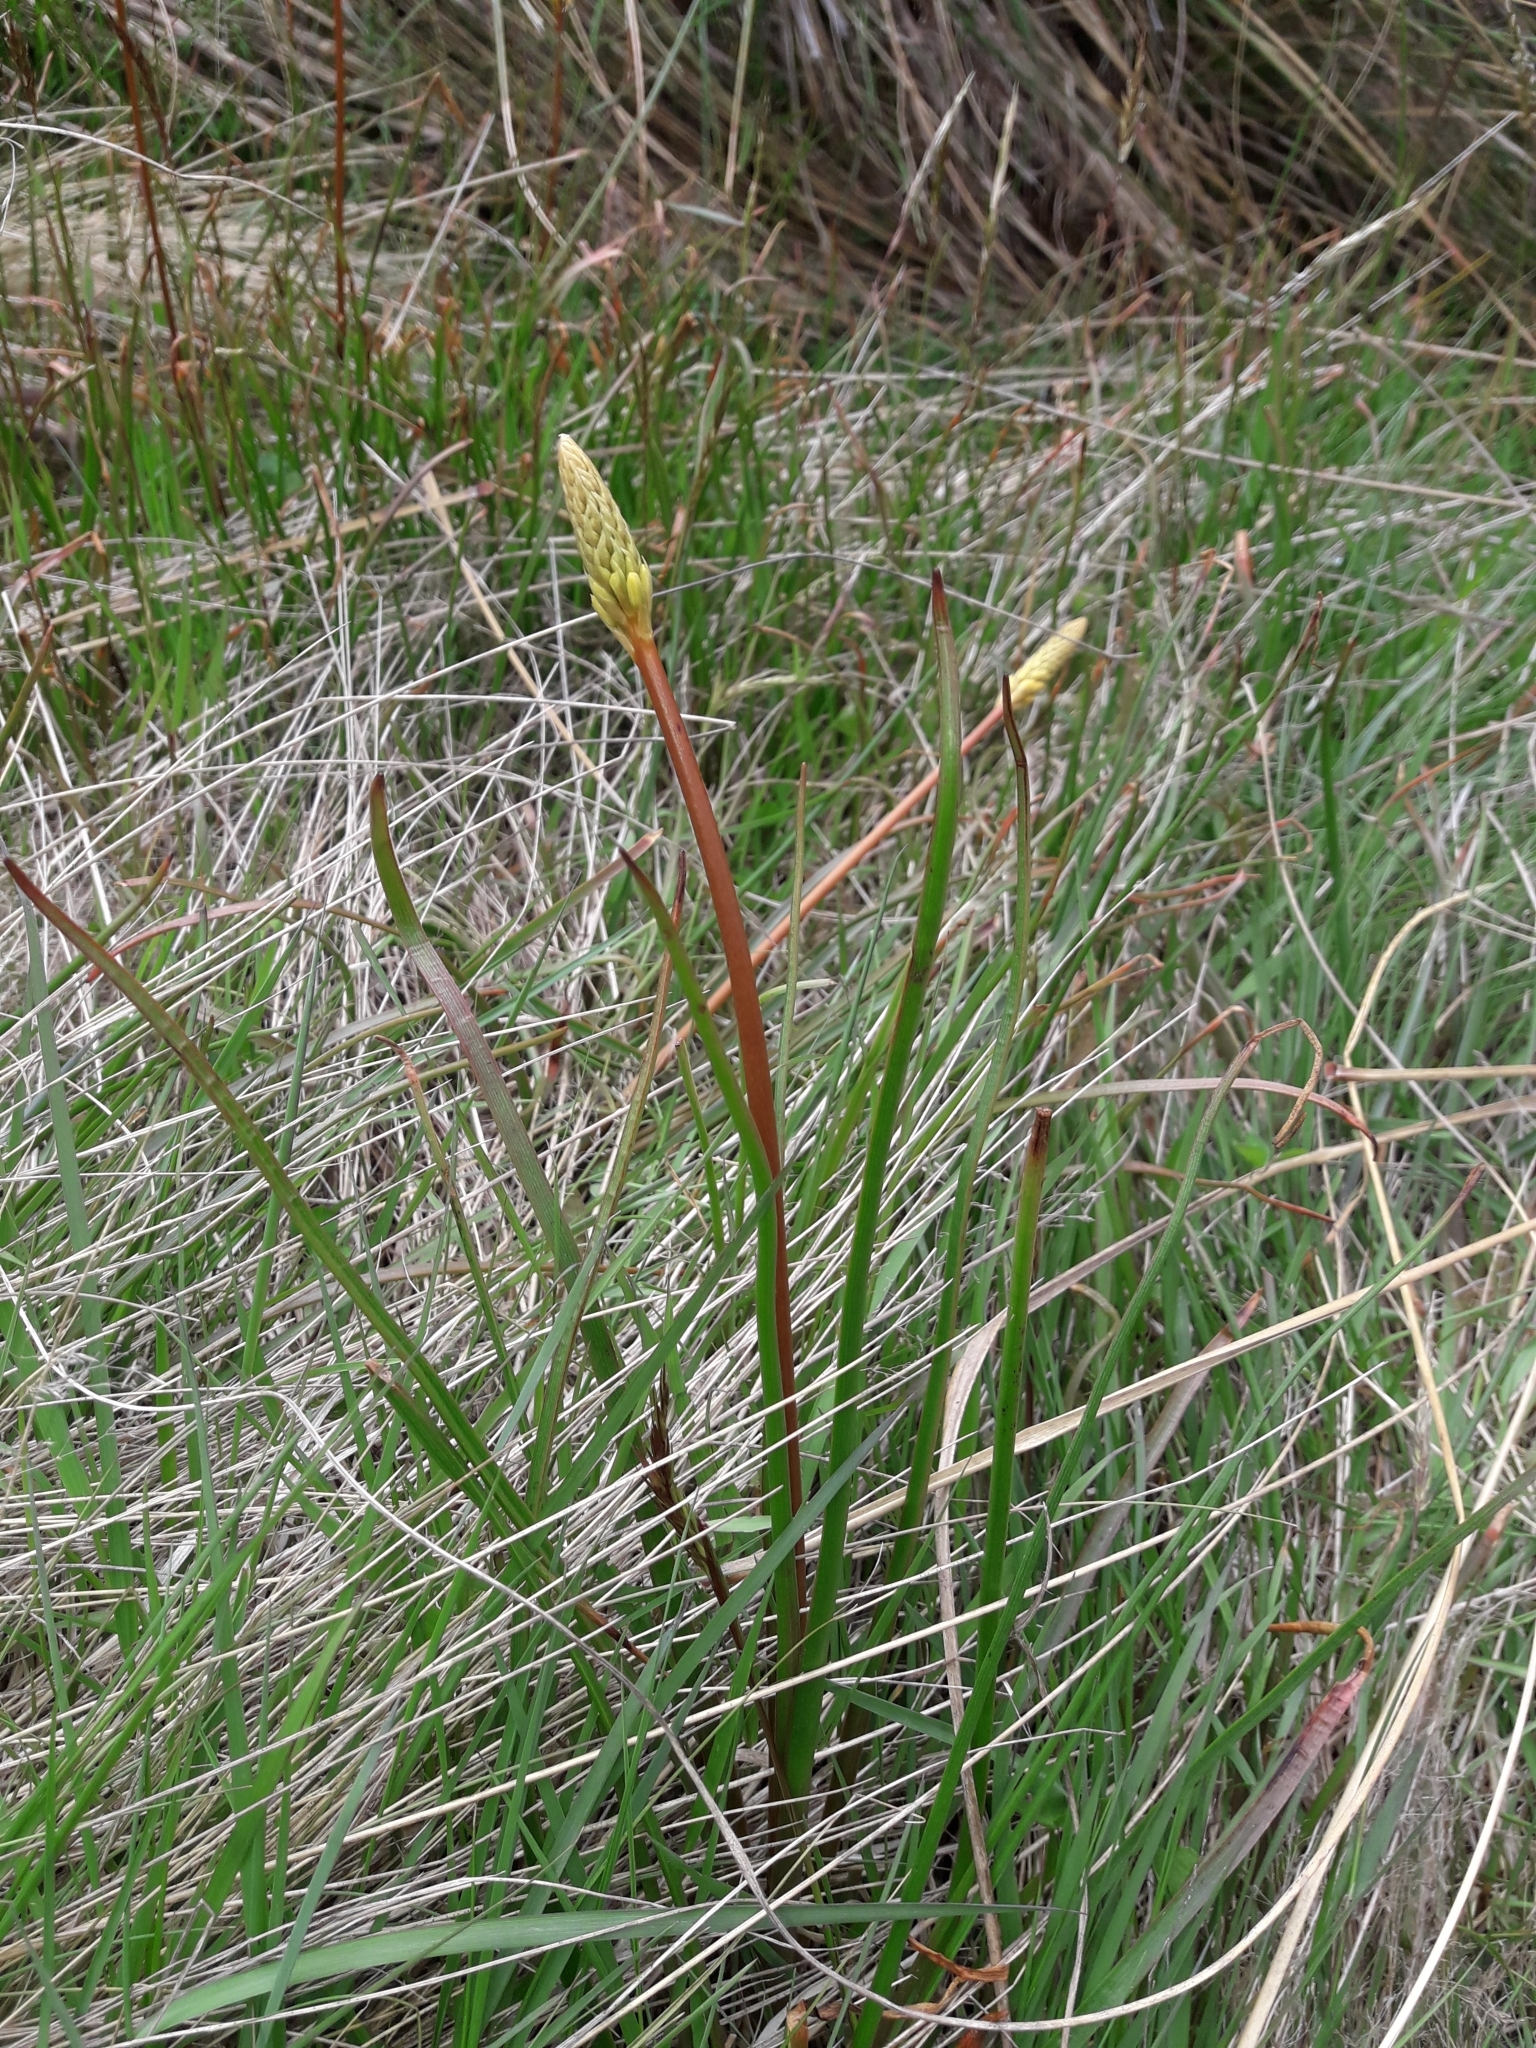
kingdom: Plantae
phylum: Tracheophyta
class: Liliopsida
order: Asparagales
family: Asphodelaceae
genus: Bulbinella
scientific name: Bulbinella angustifolia
